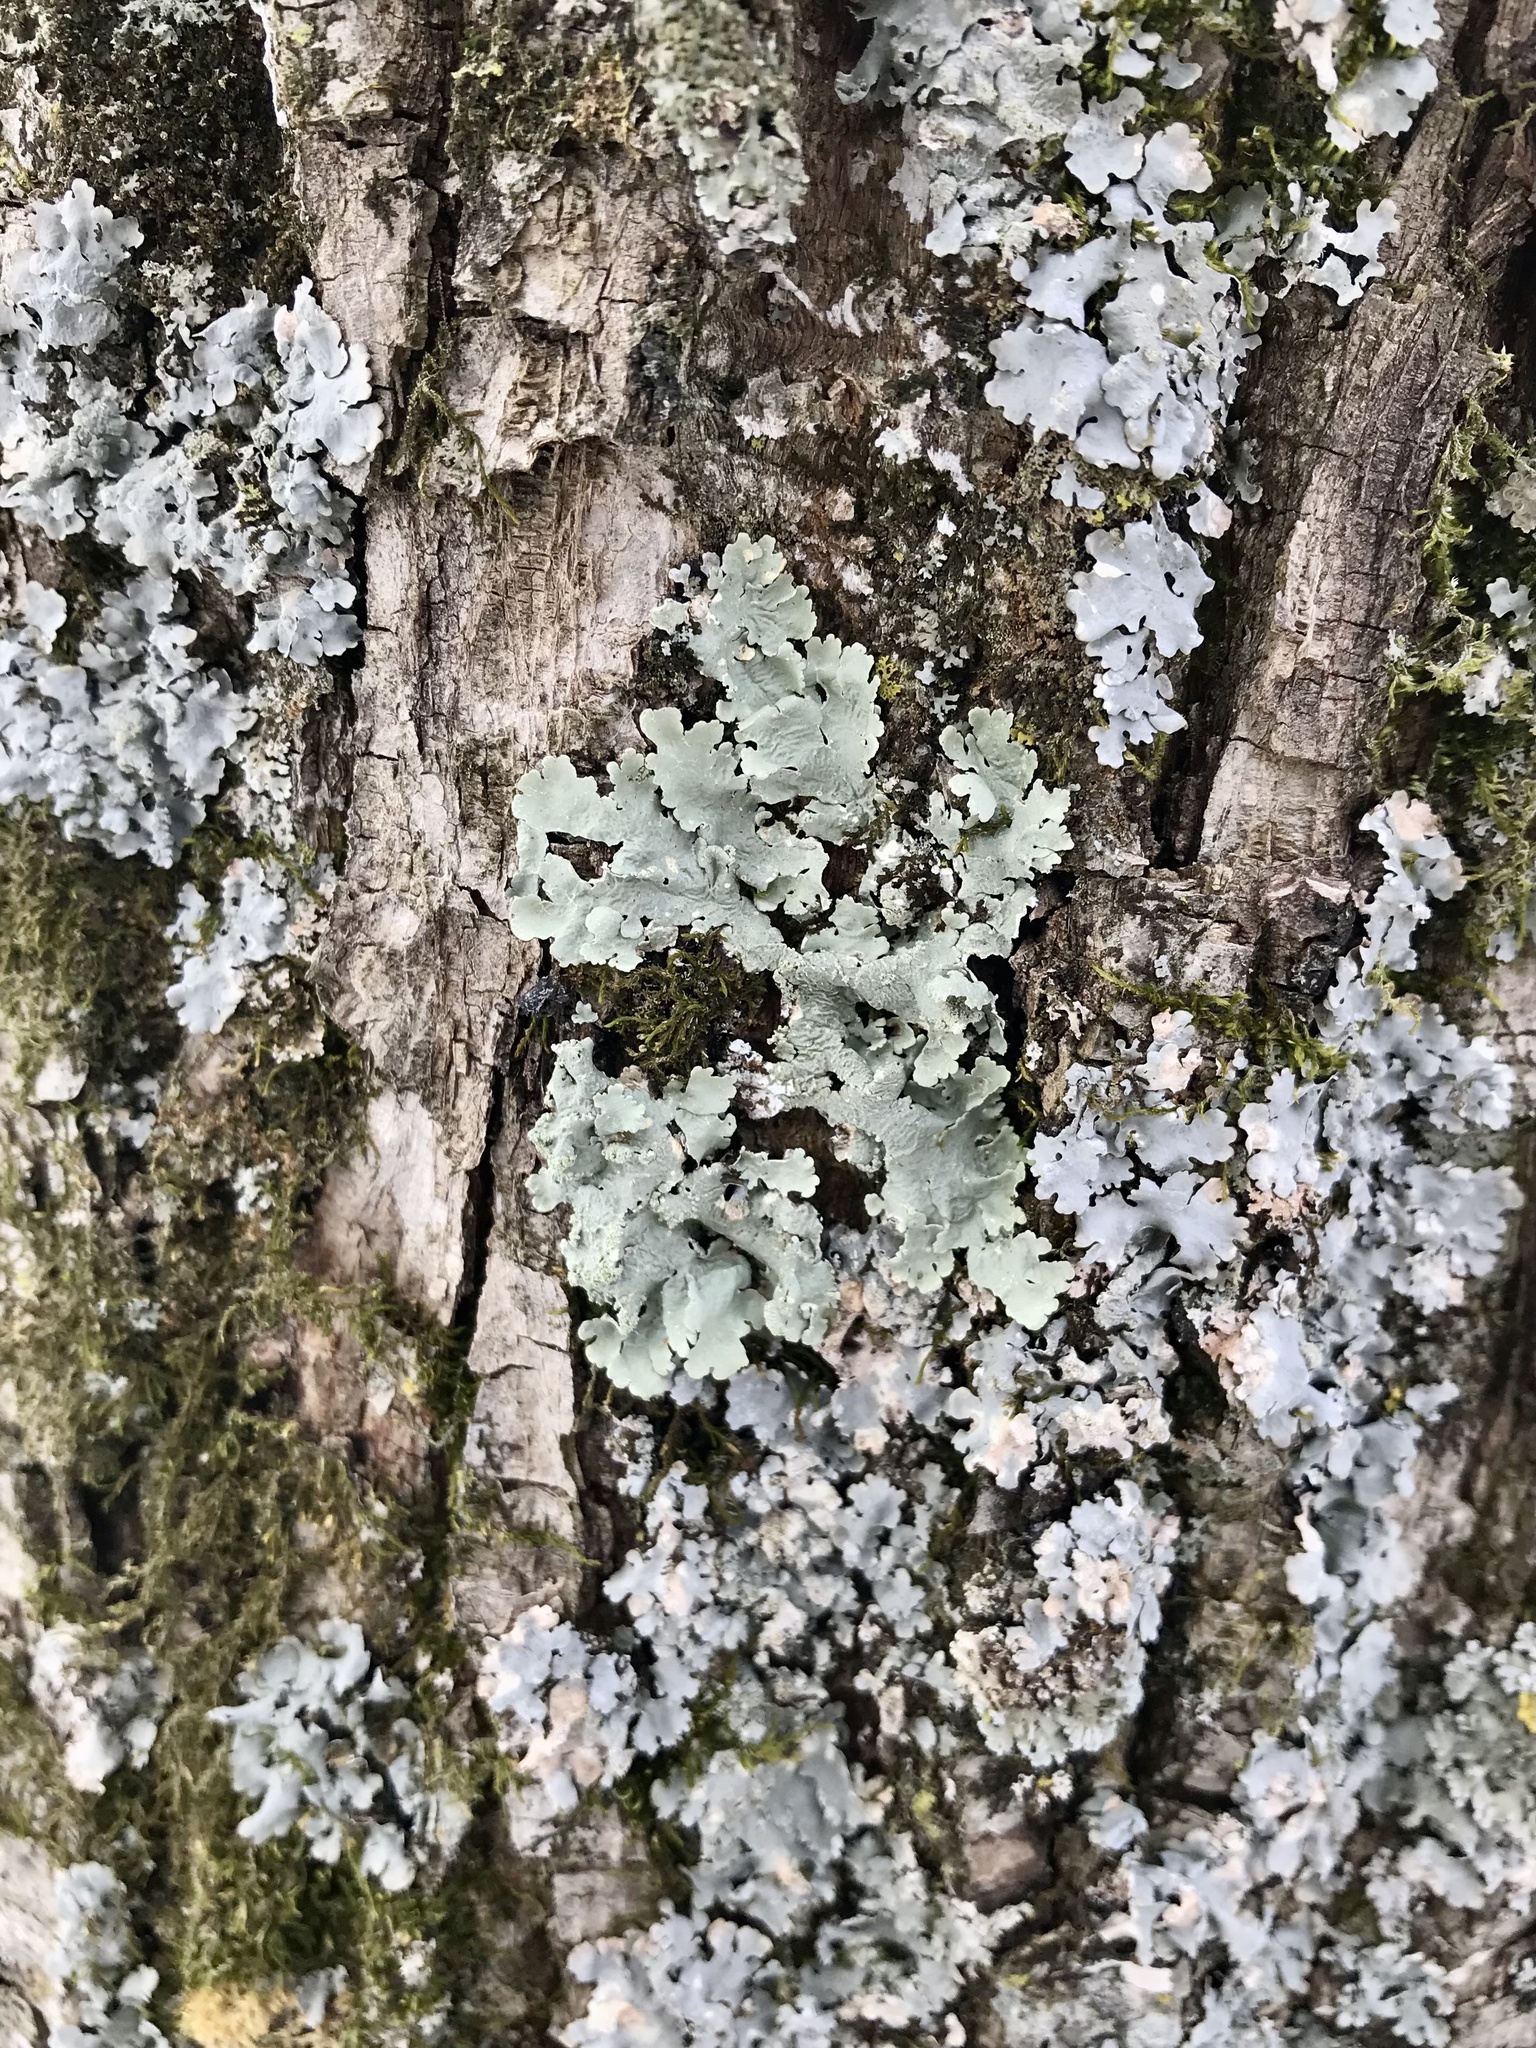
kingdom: Fungi
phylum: Ascomycota
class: Lecanoromycetes
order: Lecanorales
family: Parmeliaceae
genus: Flavoparmelia
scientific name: Flavoparmelia caperata
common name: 40-mile per hour lichen
